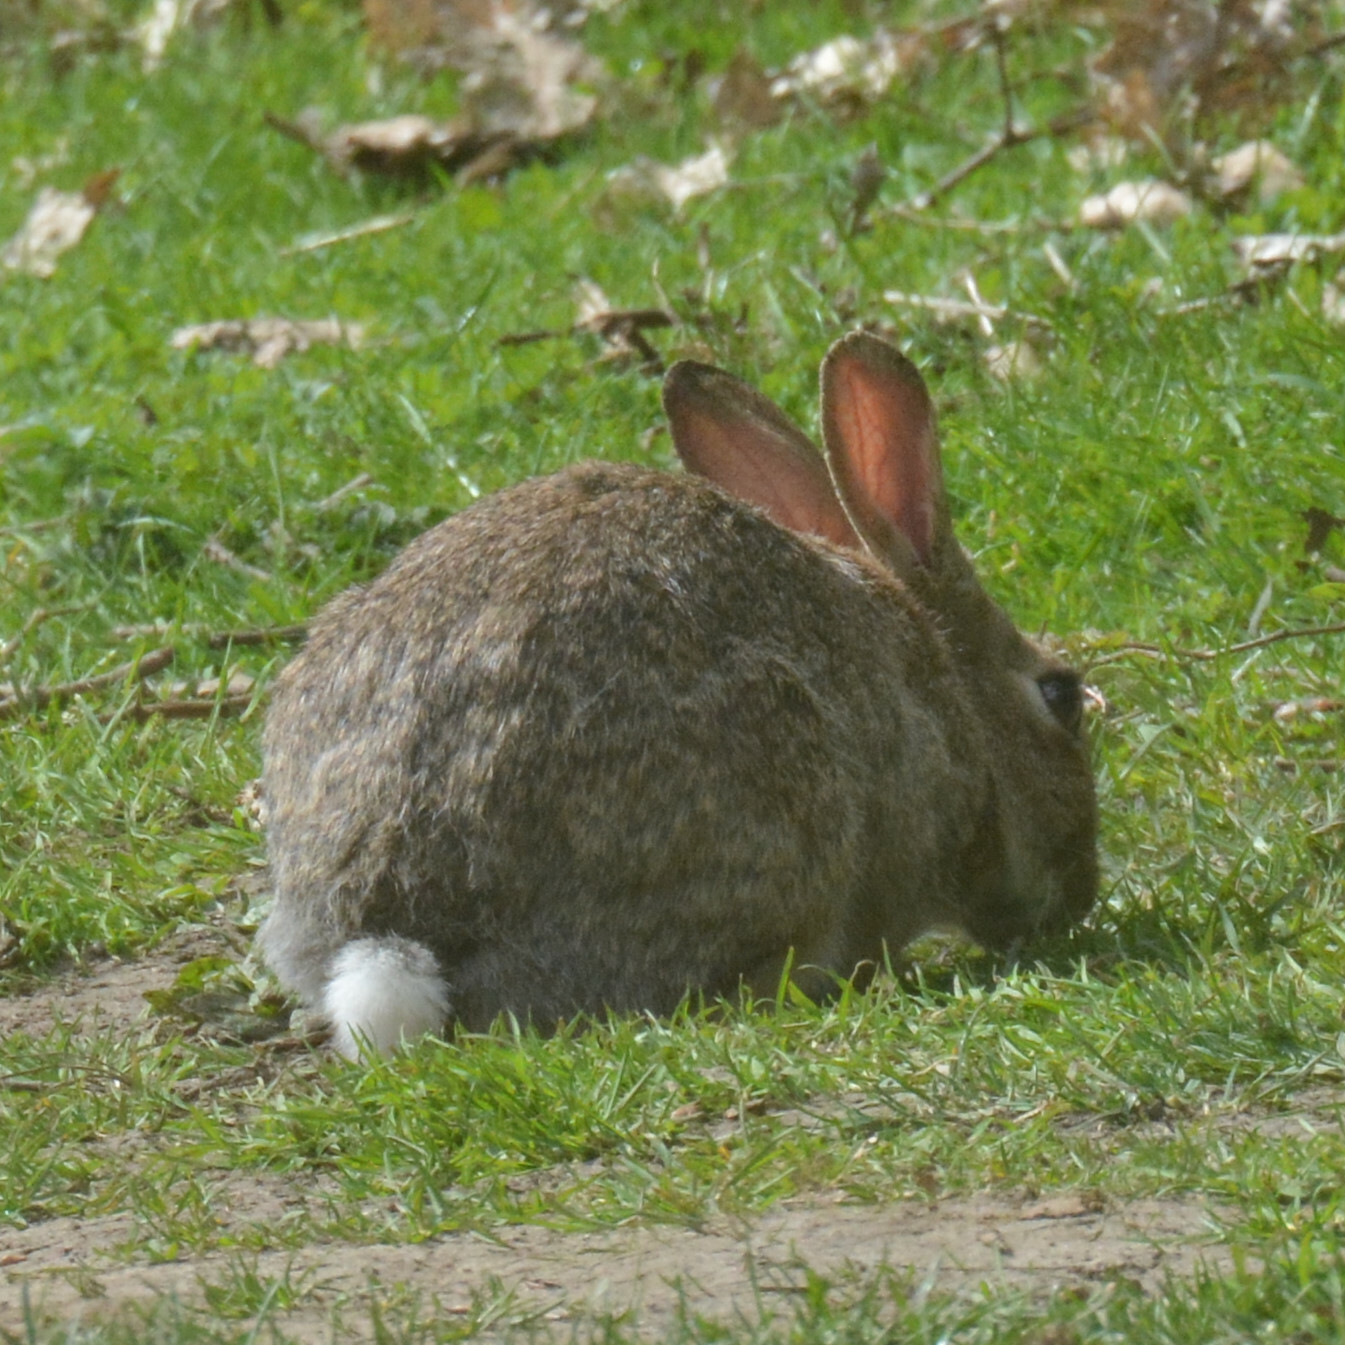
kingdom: Animalia
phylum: Chordata
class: Mammalia
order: Lagomorpha
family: Leporidae
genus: Oryctolagus
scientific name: Oryctolagus cuniculus
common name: European rabbit
